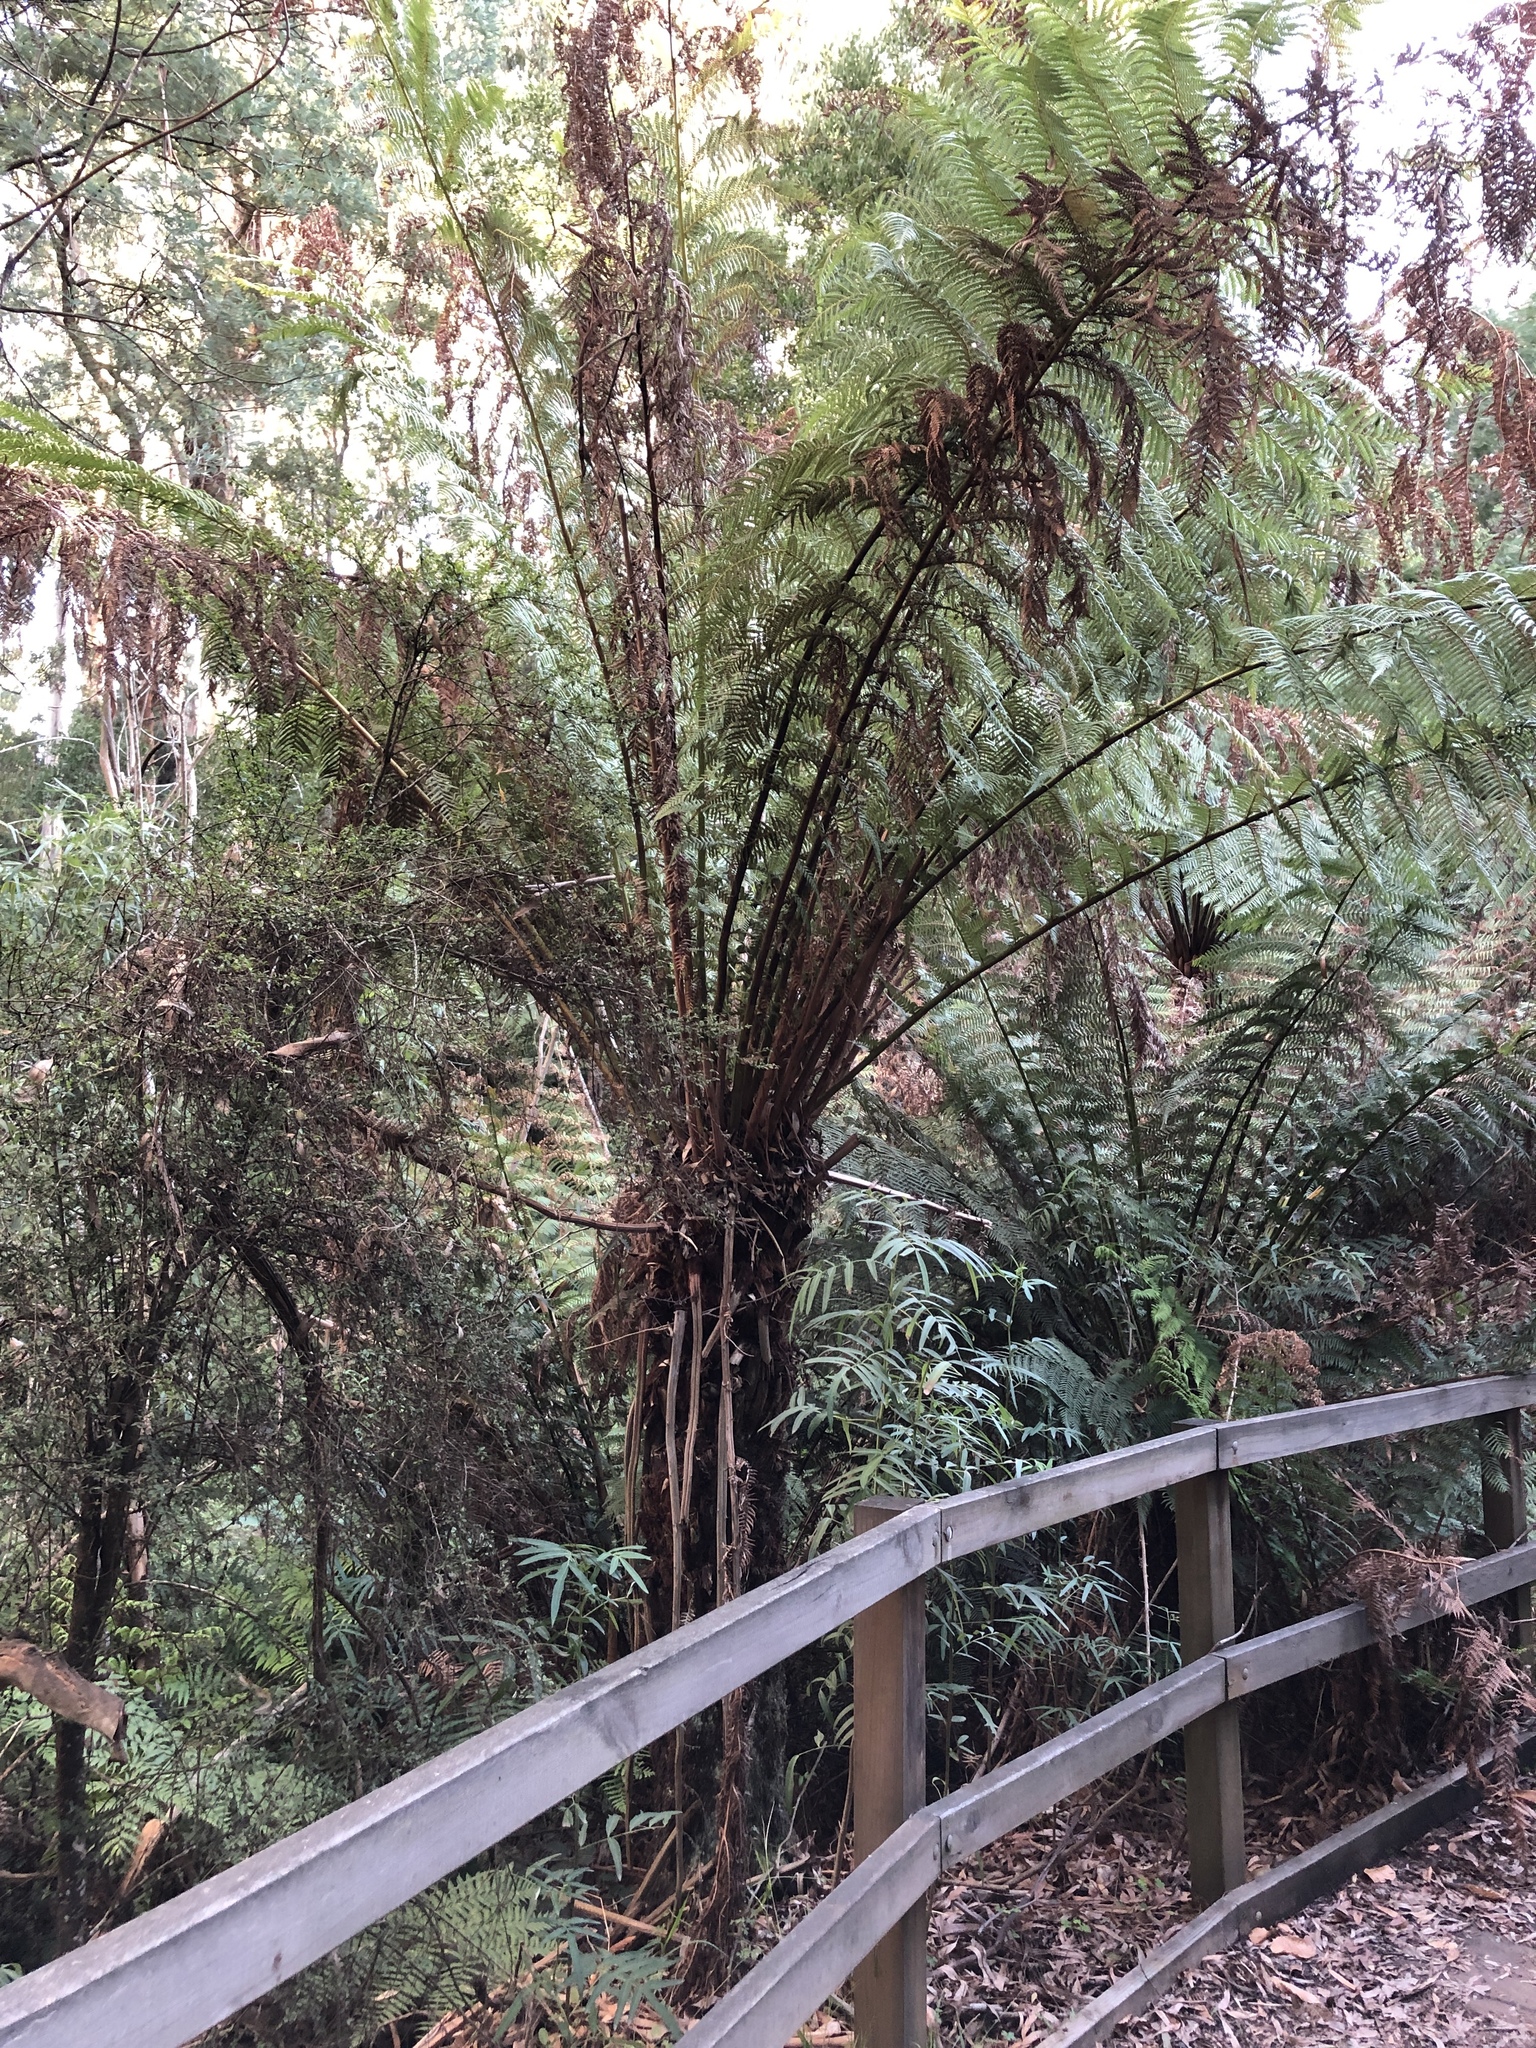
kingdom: Plantae
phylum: Tracheophyta
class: Polypodiopsida
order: Cyatheales
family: Dicksoniaceae
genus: Dicksonia
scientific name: Dicksonia antarctica
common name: Australian treefern
